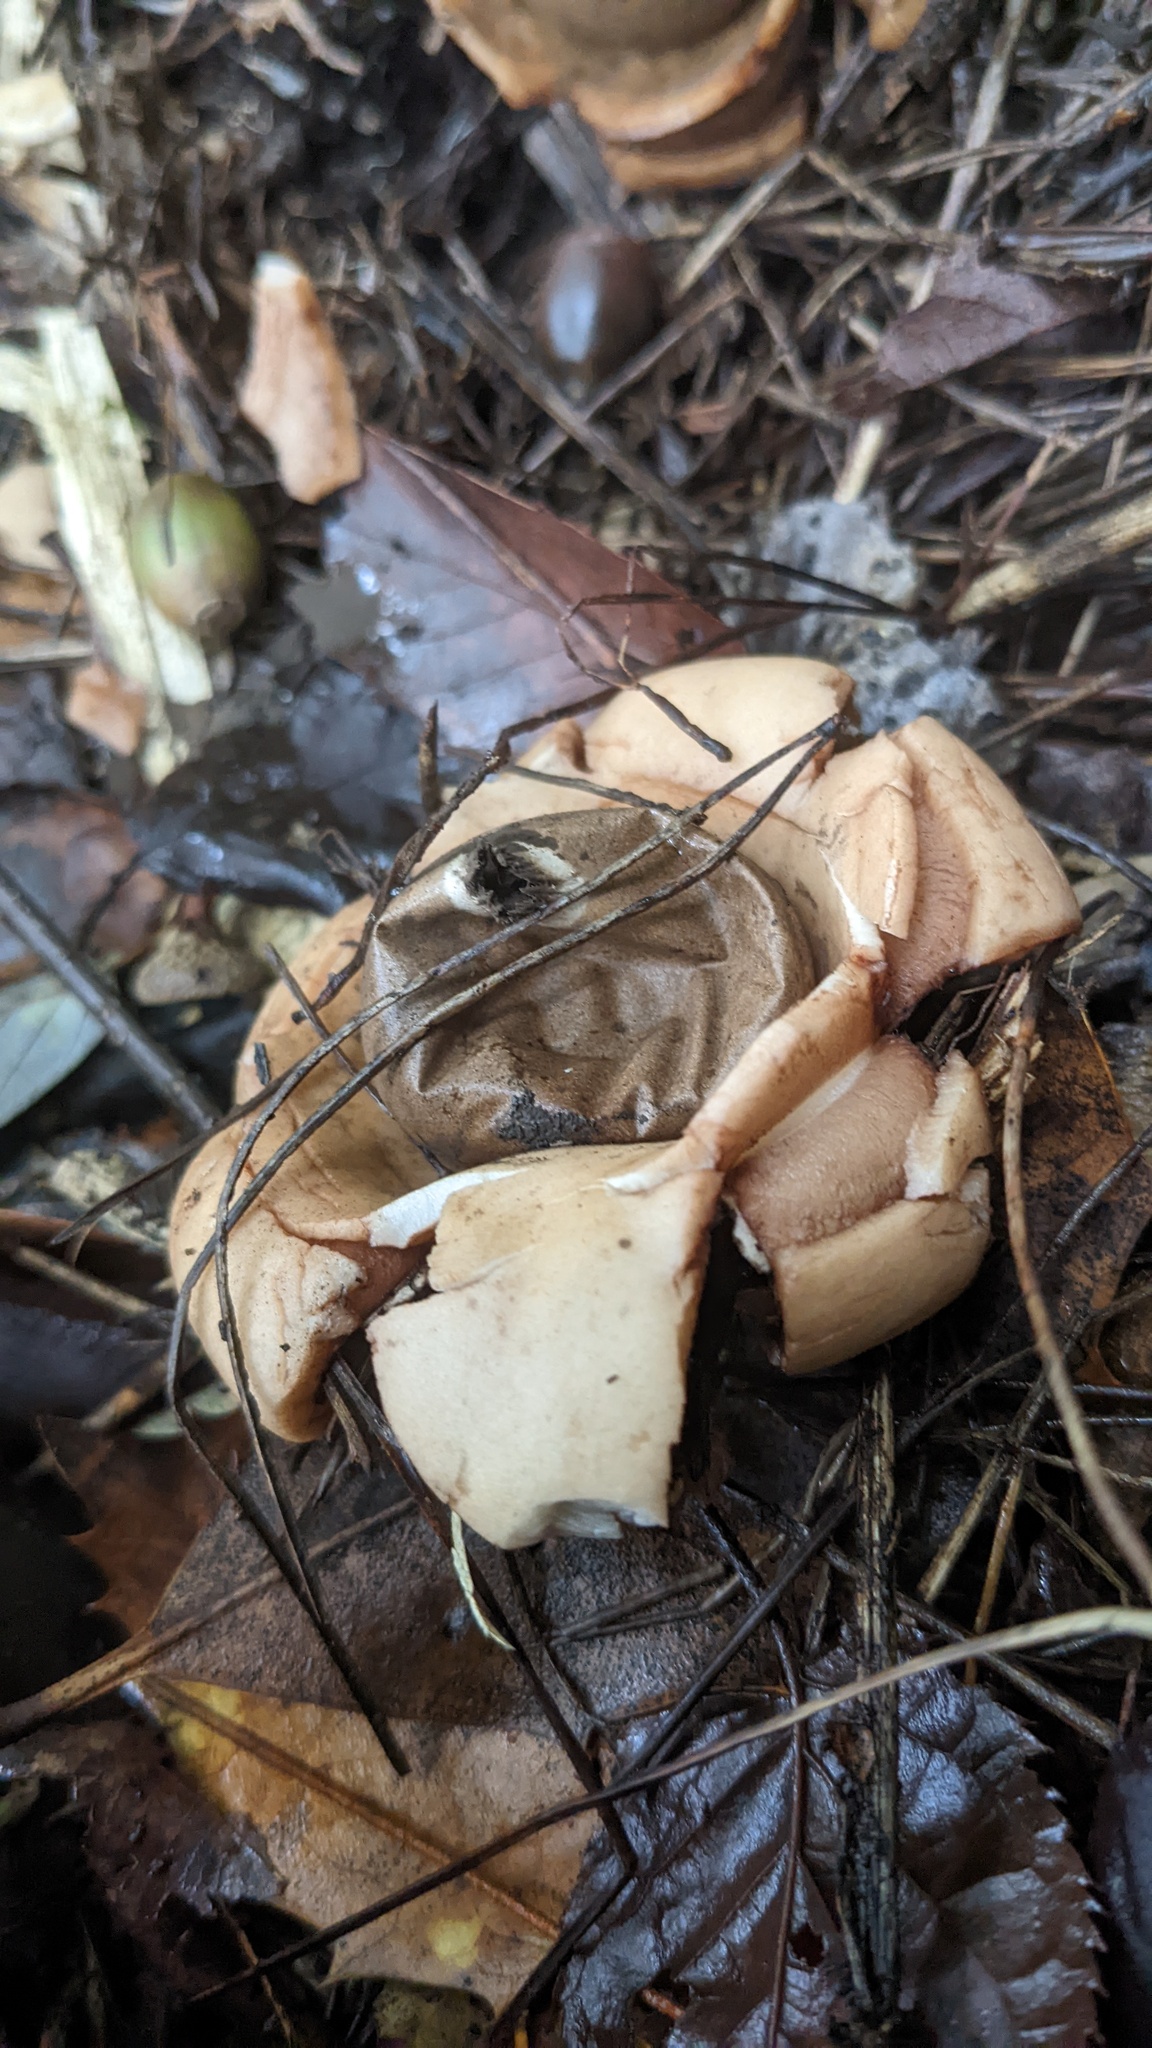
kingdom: Fungi
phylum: Basidiomycota
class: Agaricomycetes
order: Geastrales
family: Geastraceae
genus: Geastrum
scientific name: Geastrum triplex
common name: Collared earthstar
